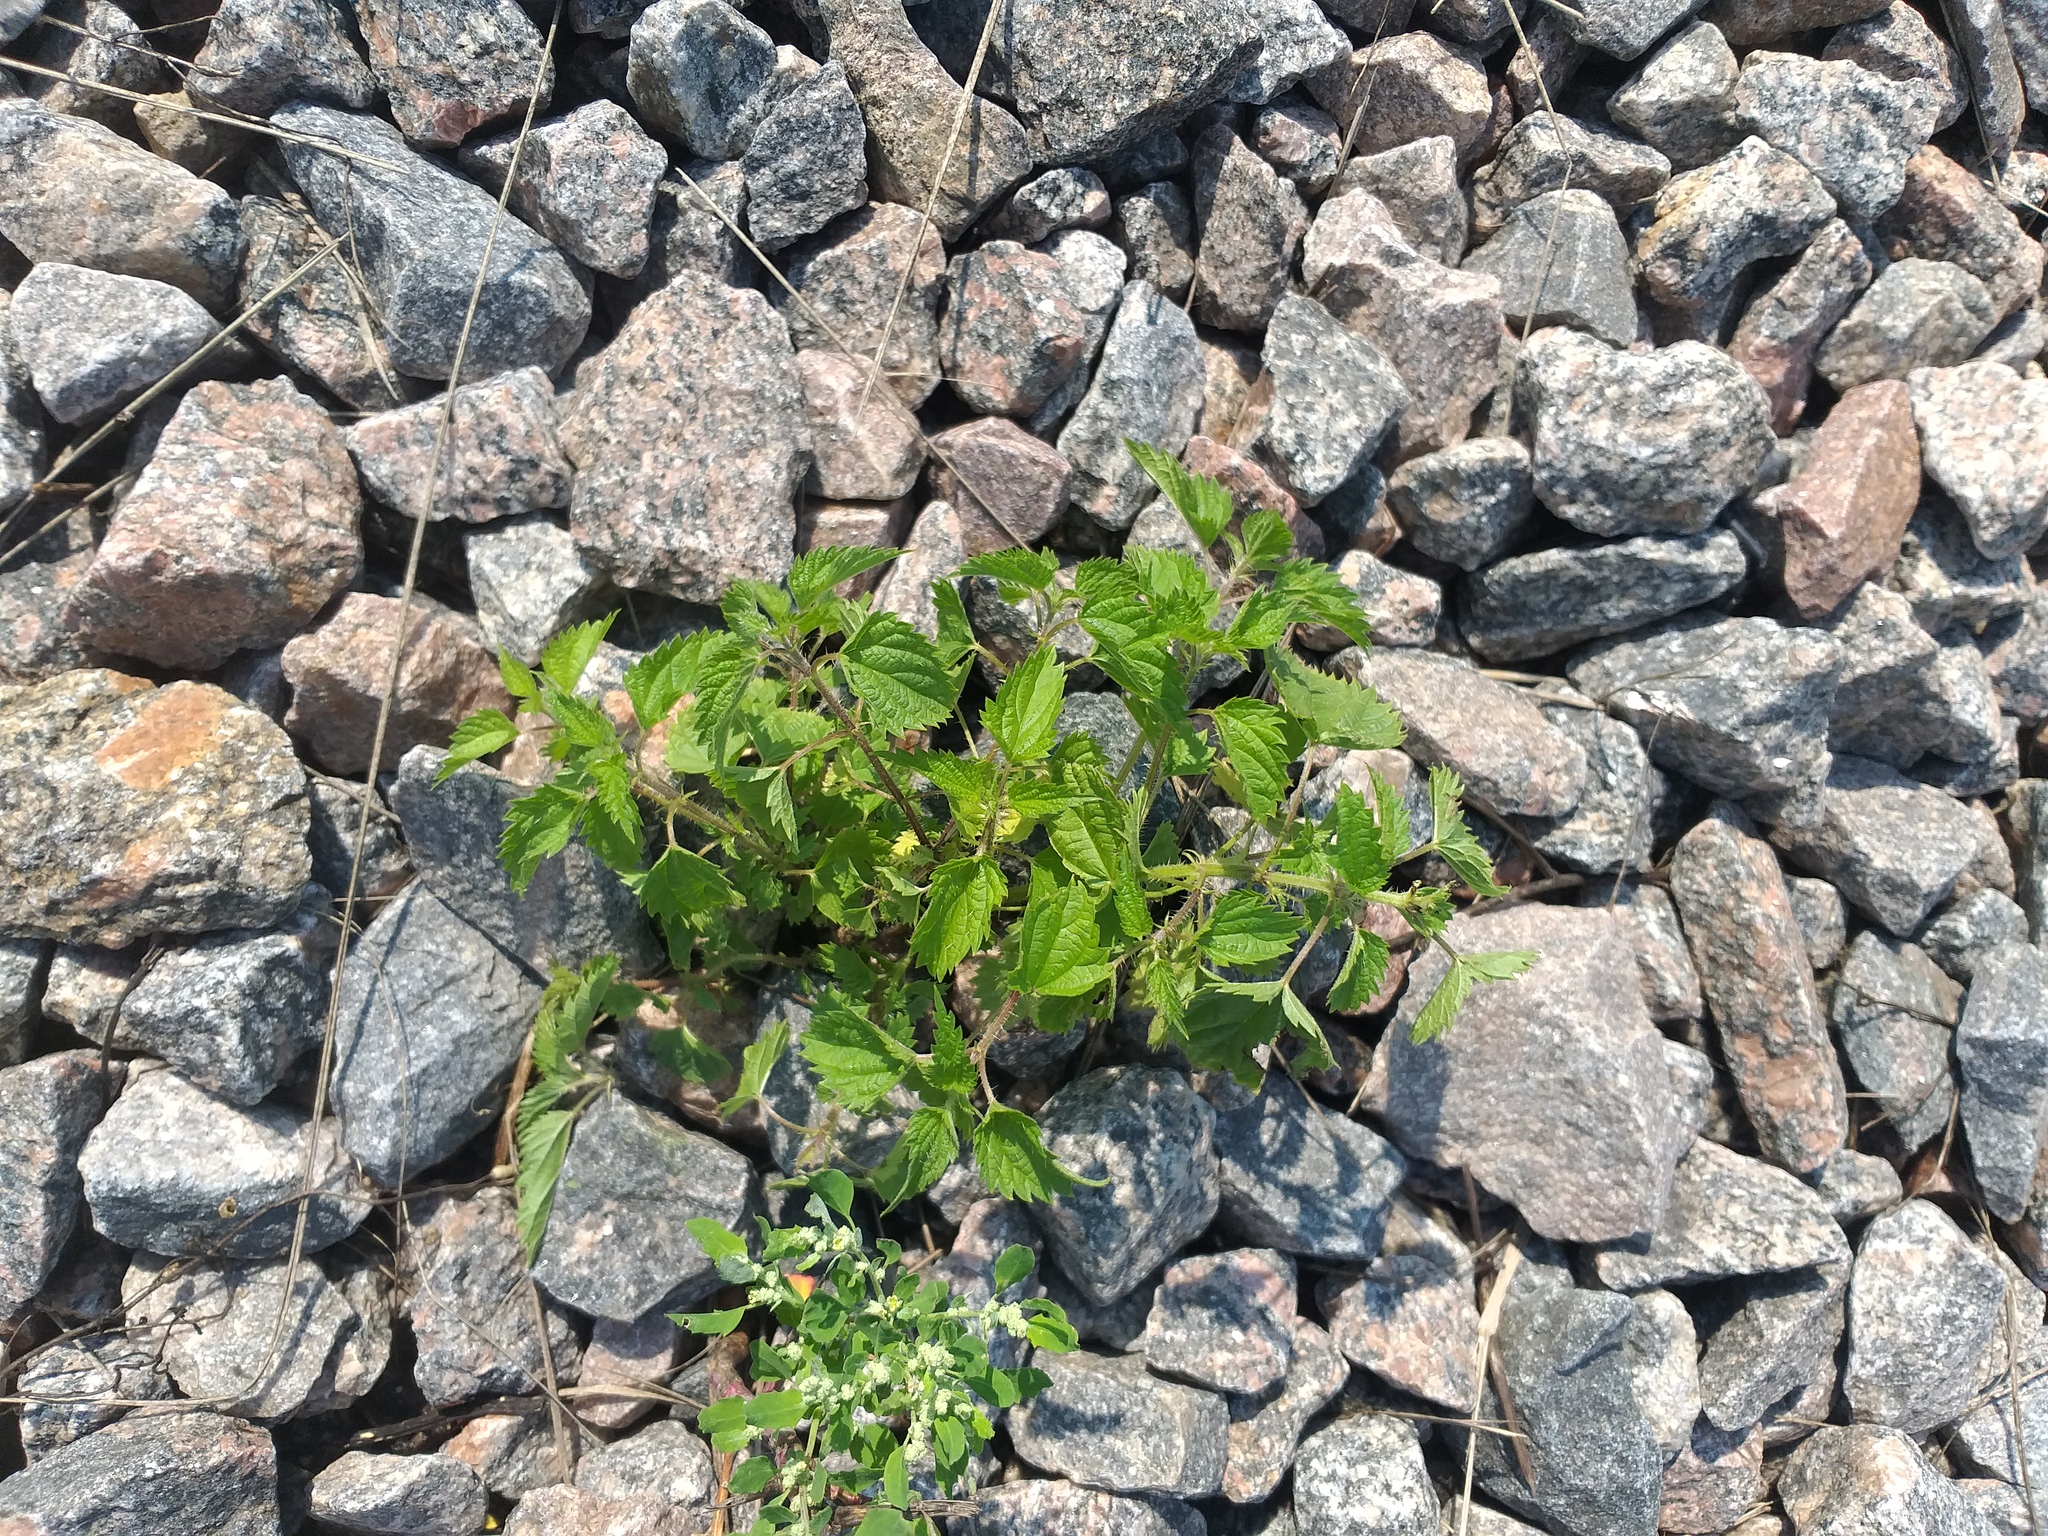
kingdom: Plantae
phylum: Tracheophyta
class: Magnoliopsida
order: Rosales
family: Urticaceae
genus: Urtica
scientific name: Urtica dioica
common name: Common nettle
